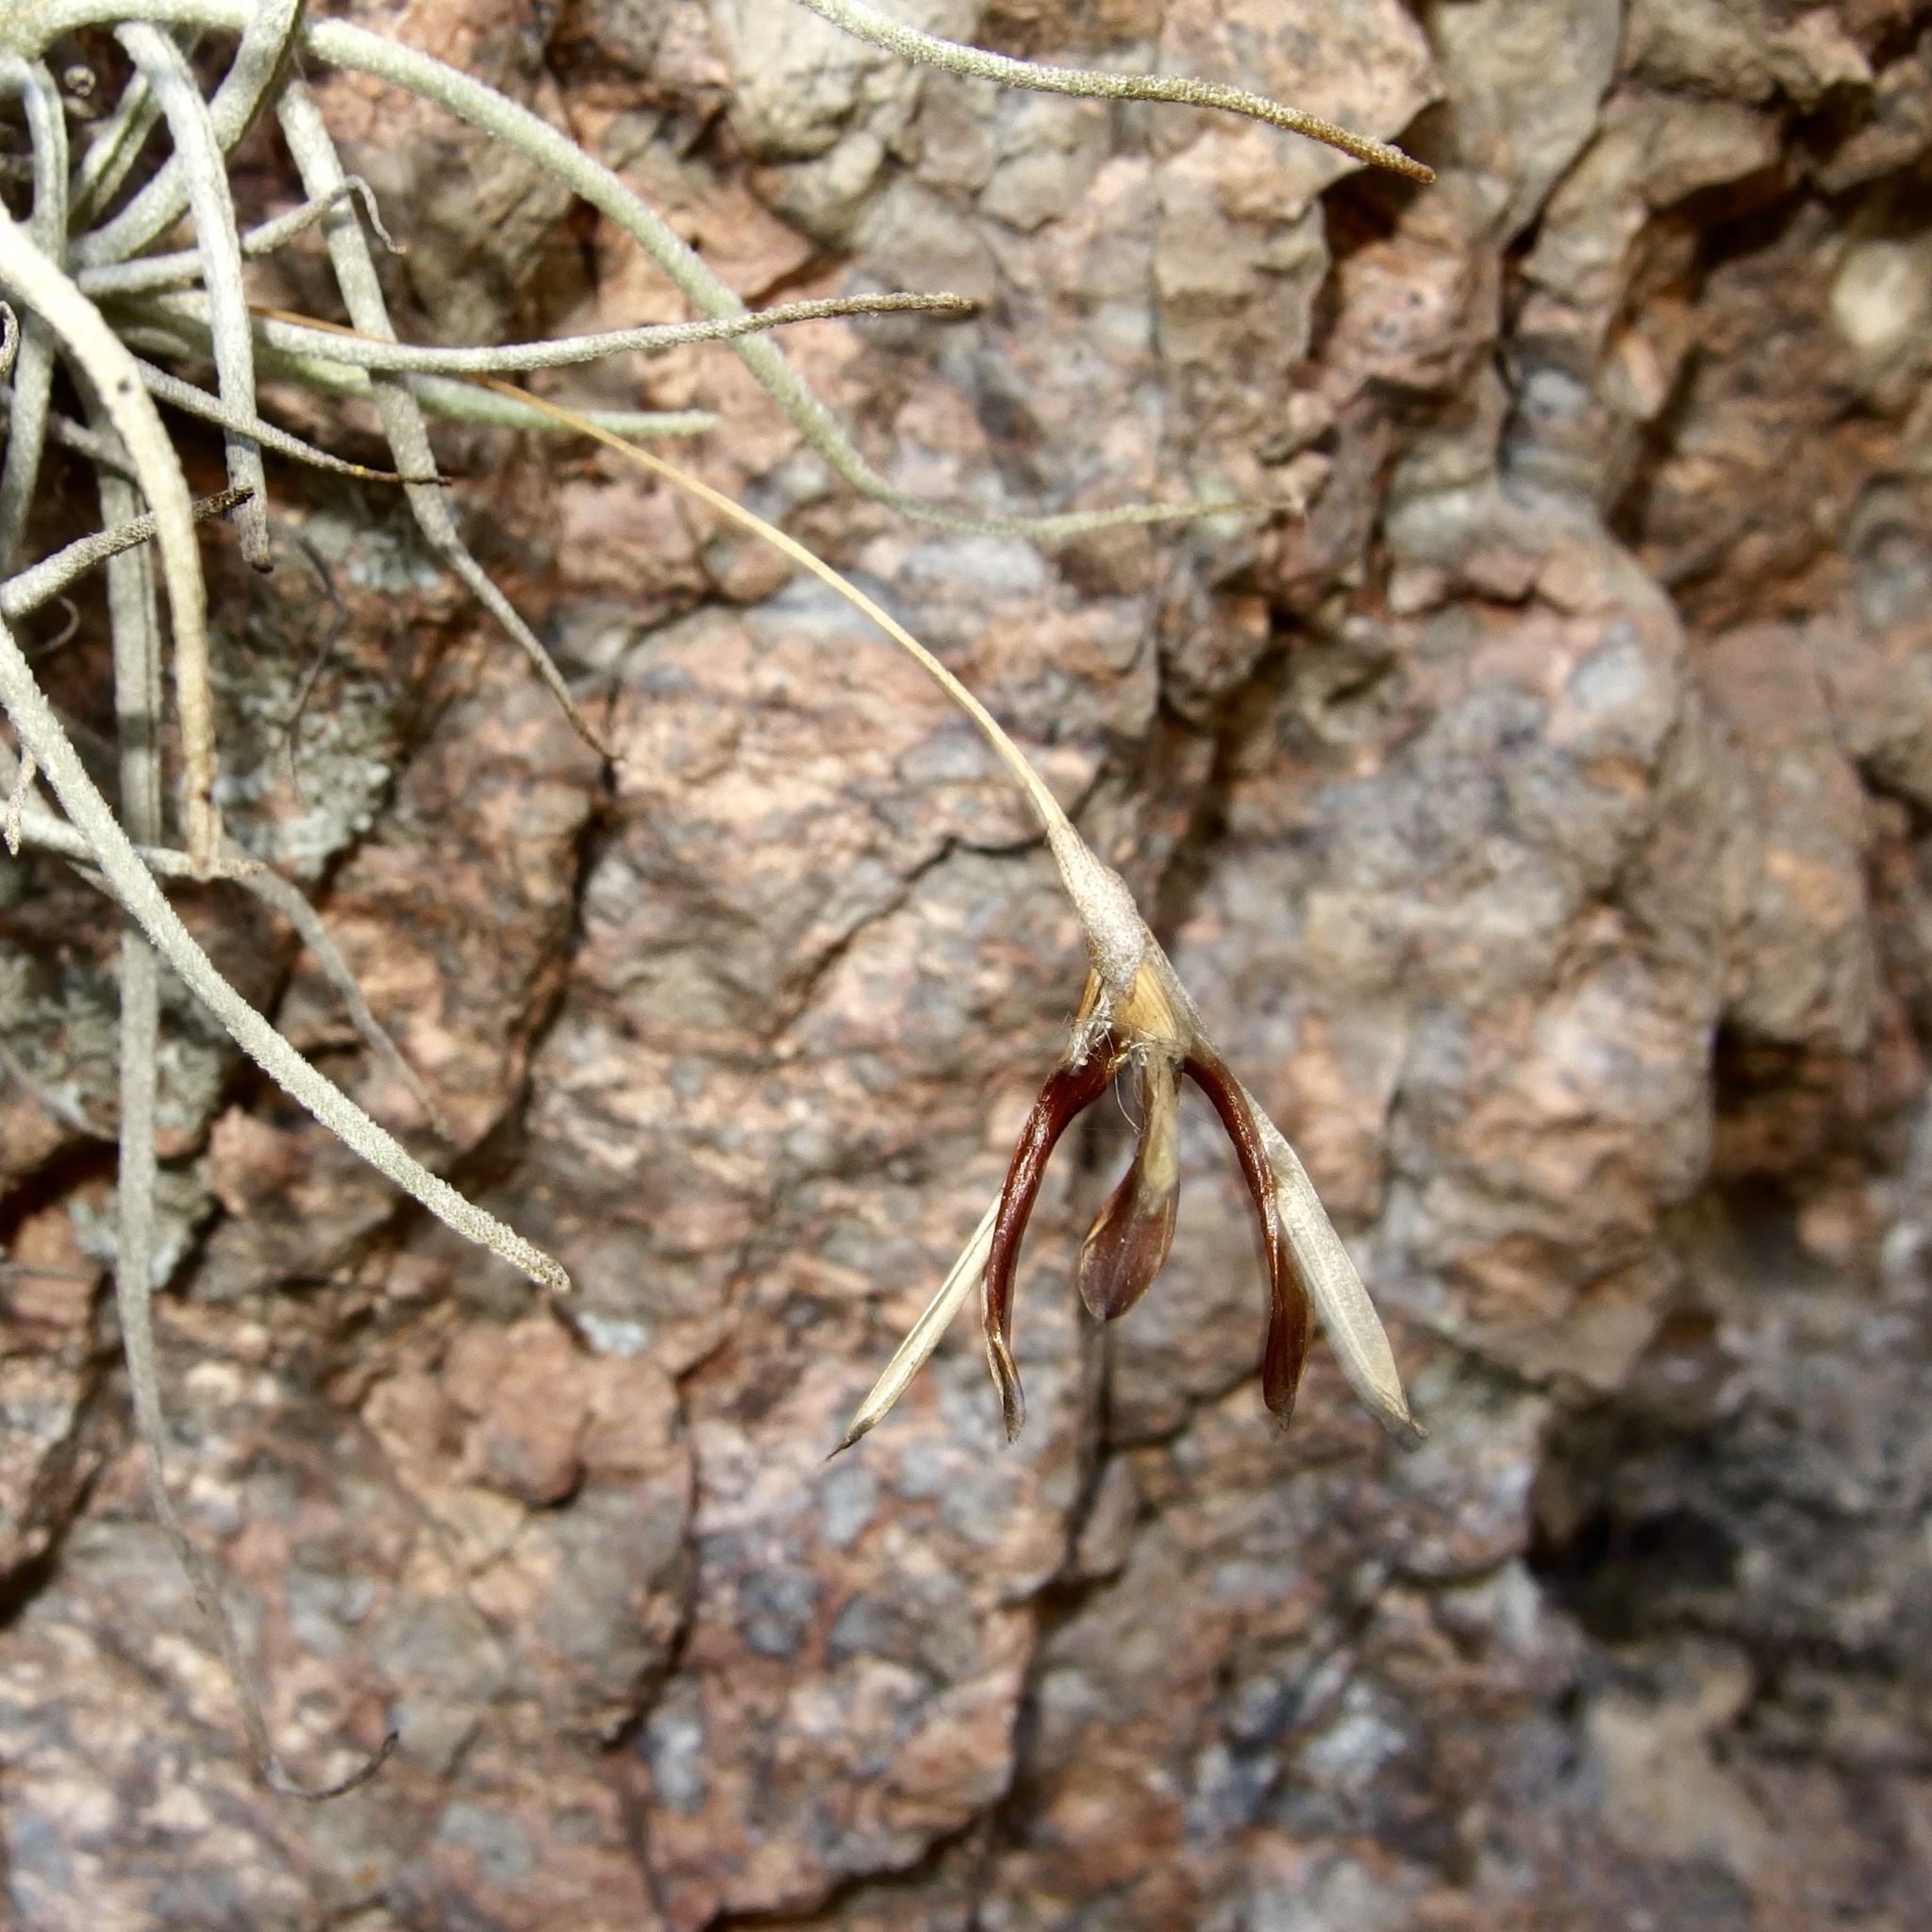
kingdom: Plantae
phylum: Tracheophyta
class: Liliopsida
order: Poales
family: Bromeliaceae
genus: Tillandsia
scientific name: Tillandsia recurvata
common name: Small ballmoss
